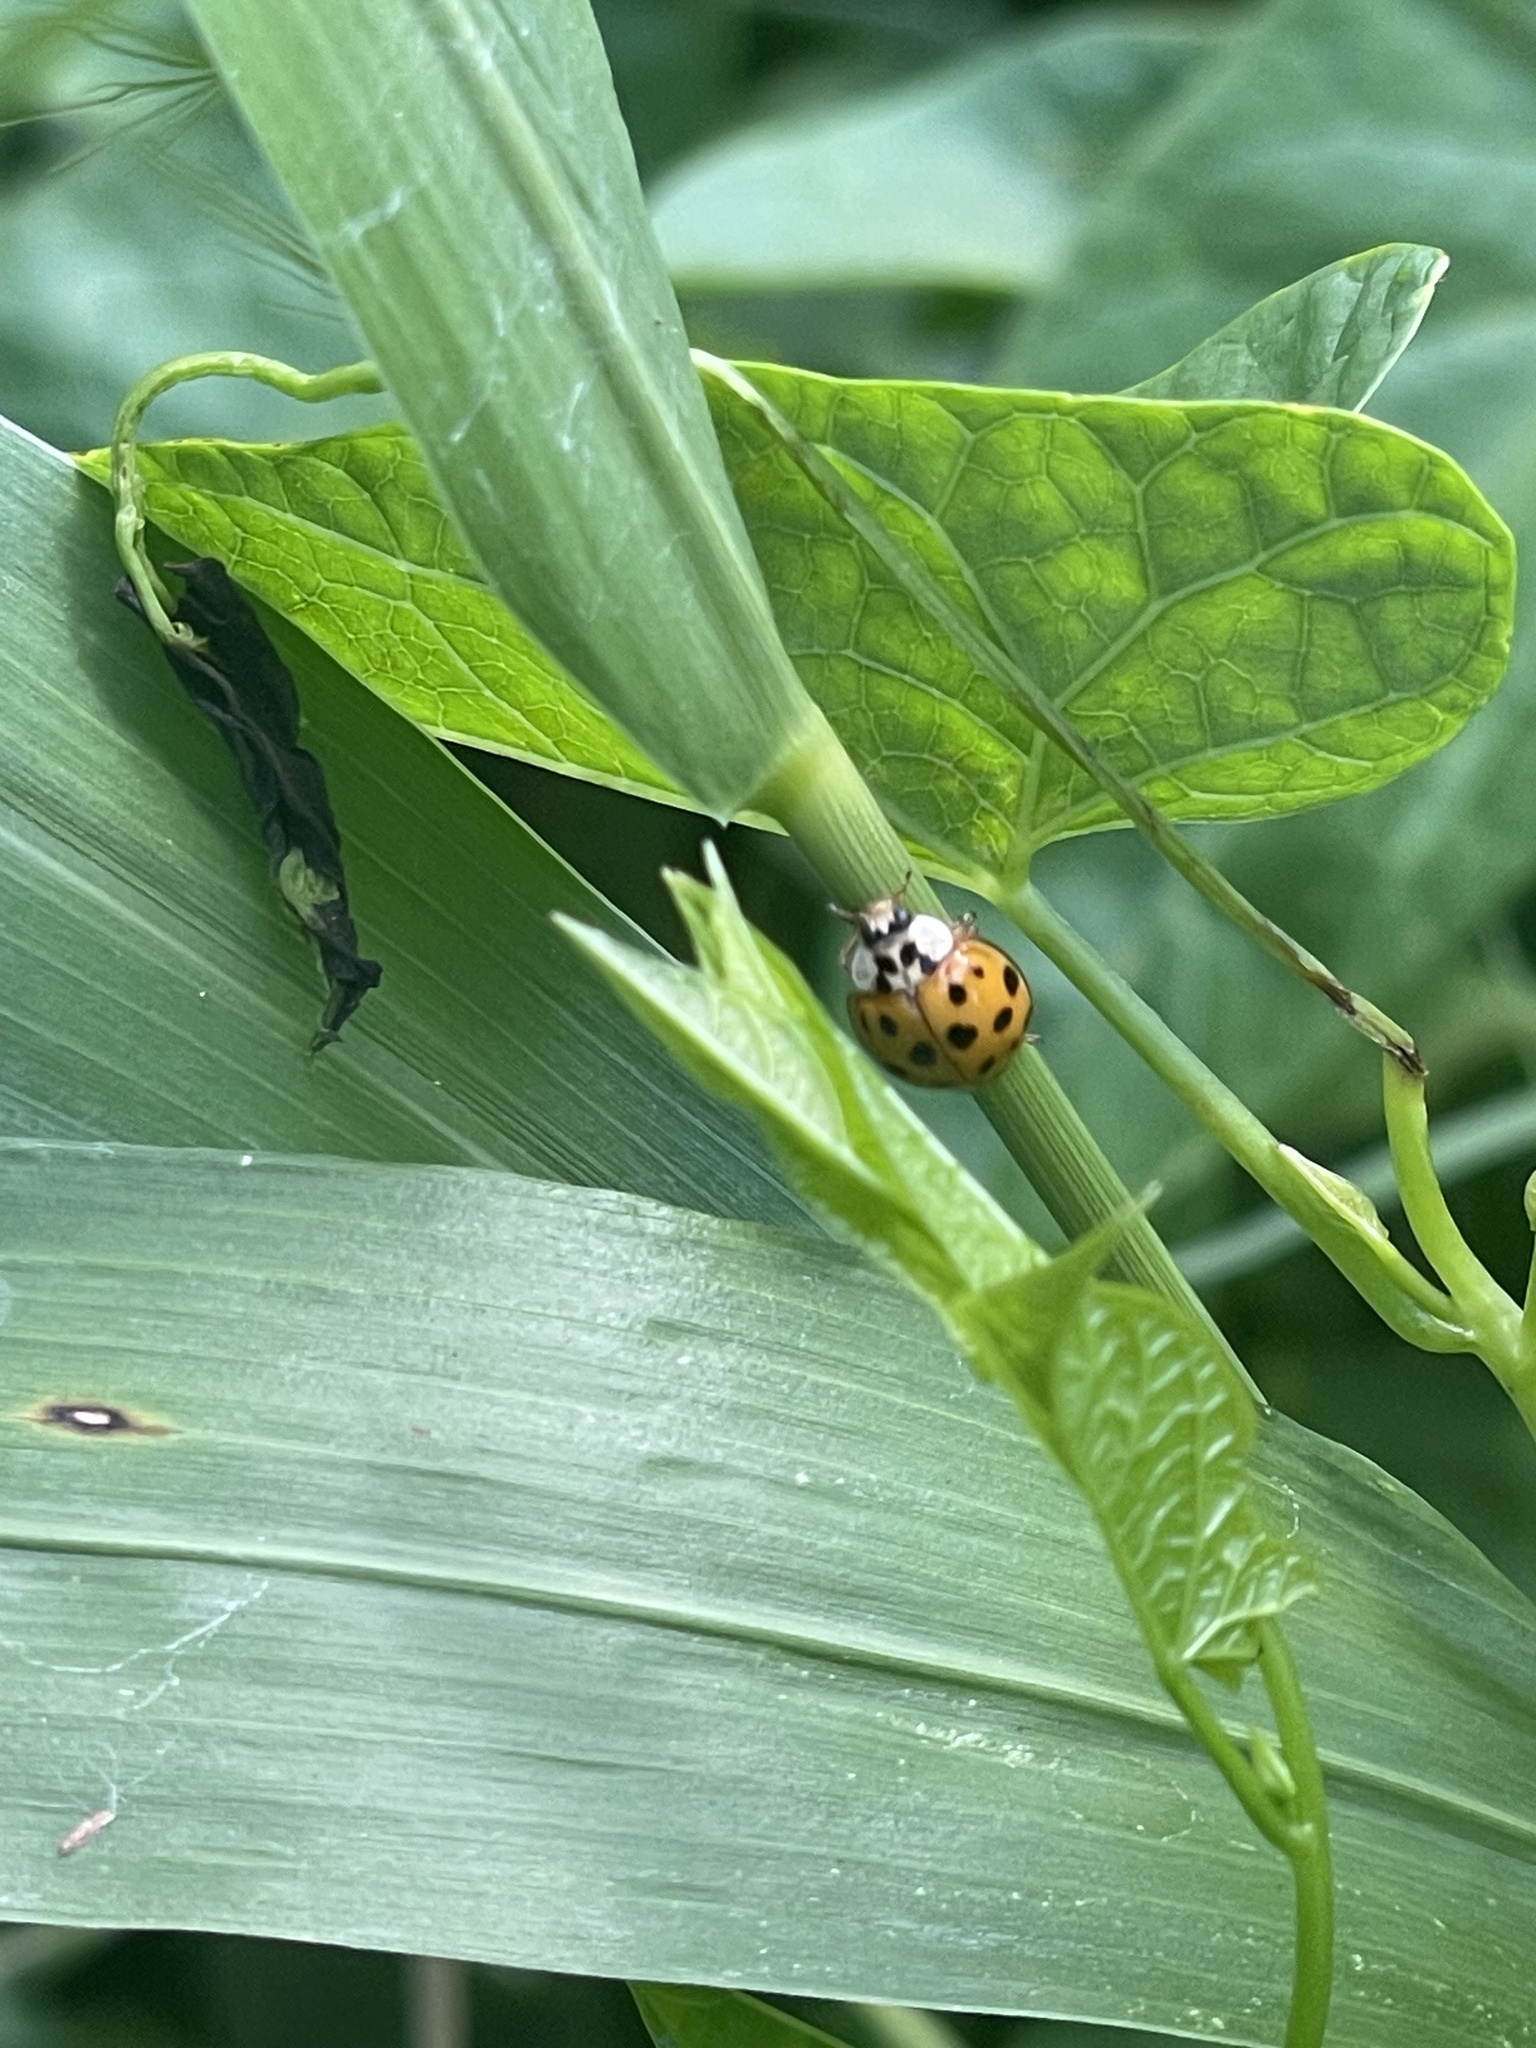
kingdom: Animalia
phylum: Arthropoda
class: Insecta
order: Coleoptera
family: Coccinellidae
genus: Harmonia
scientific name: Harmonia axyridis
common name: Harlequin ladybird
